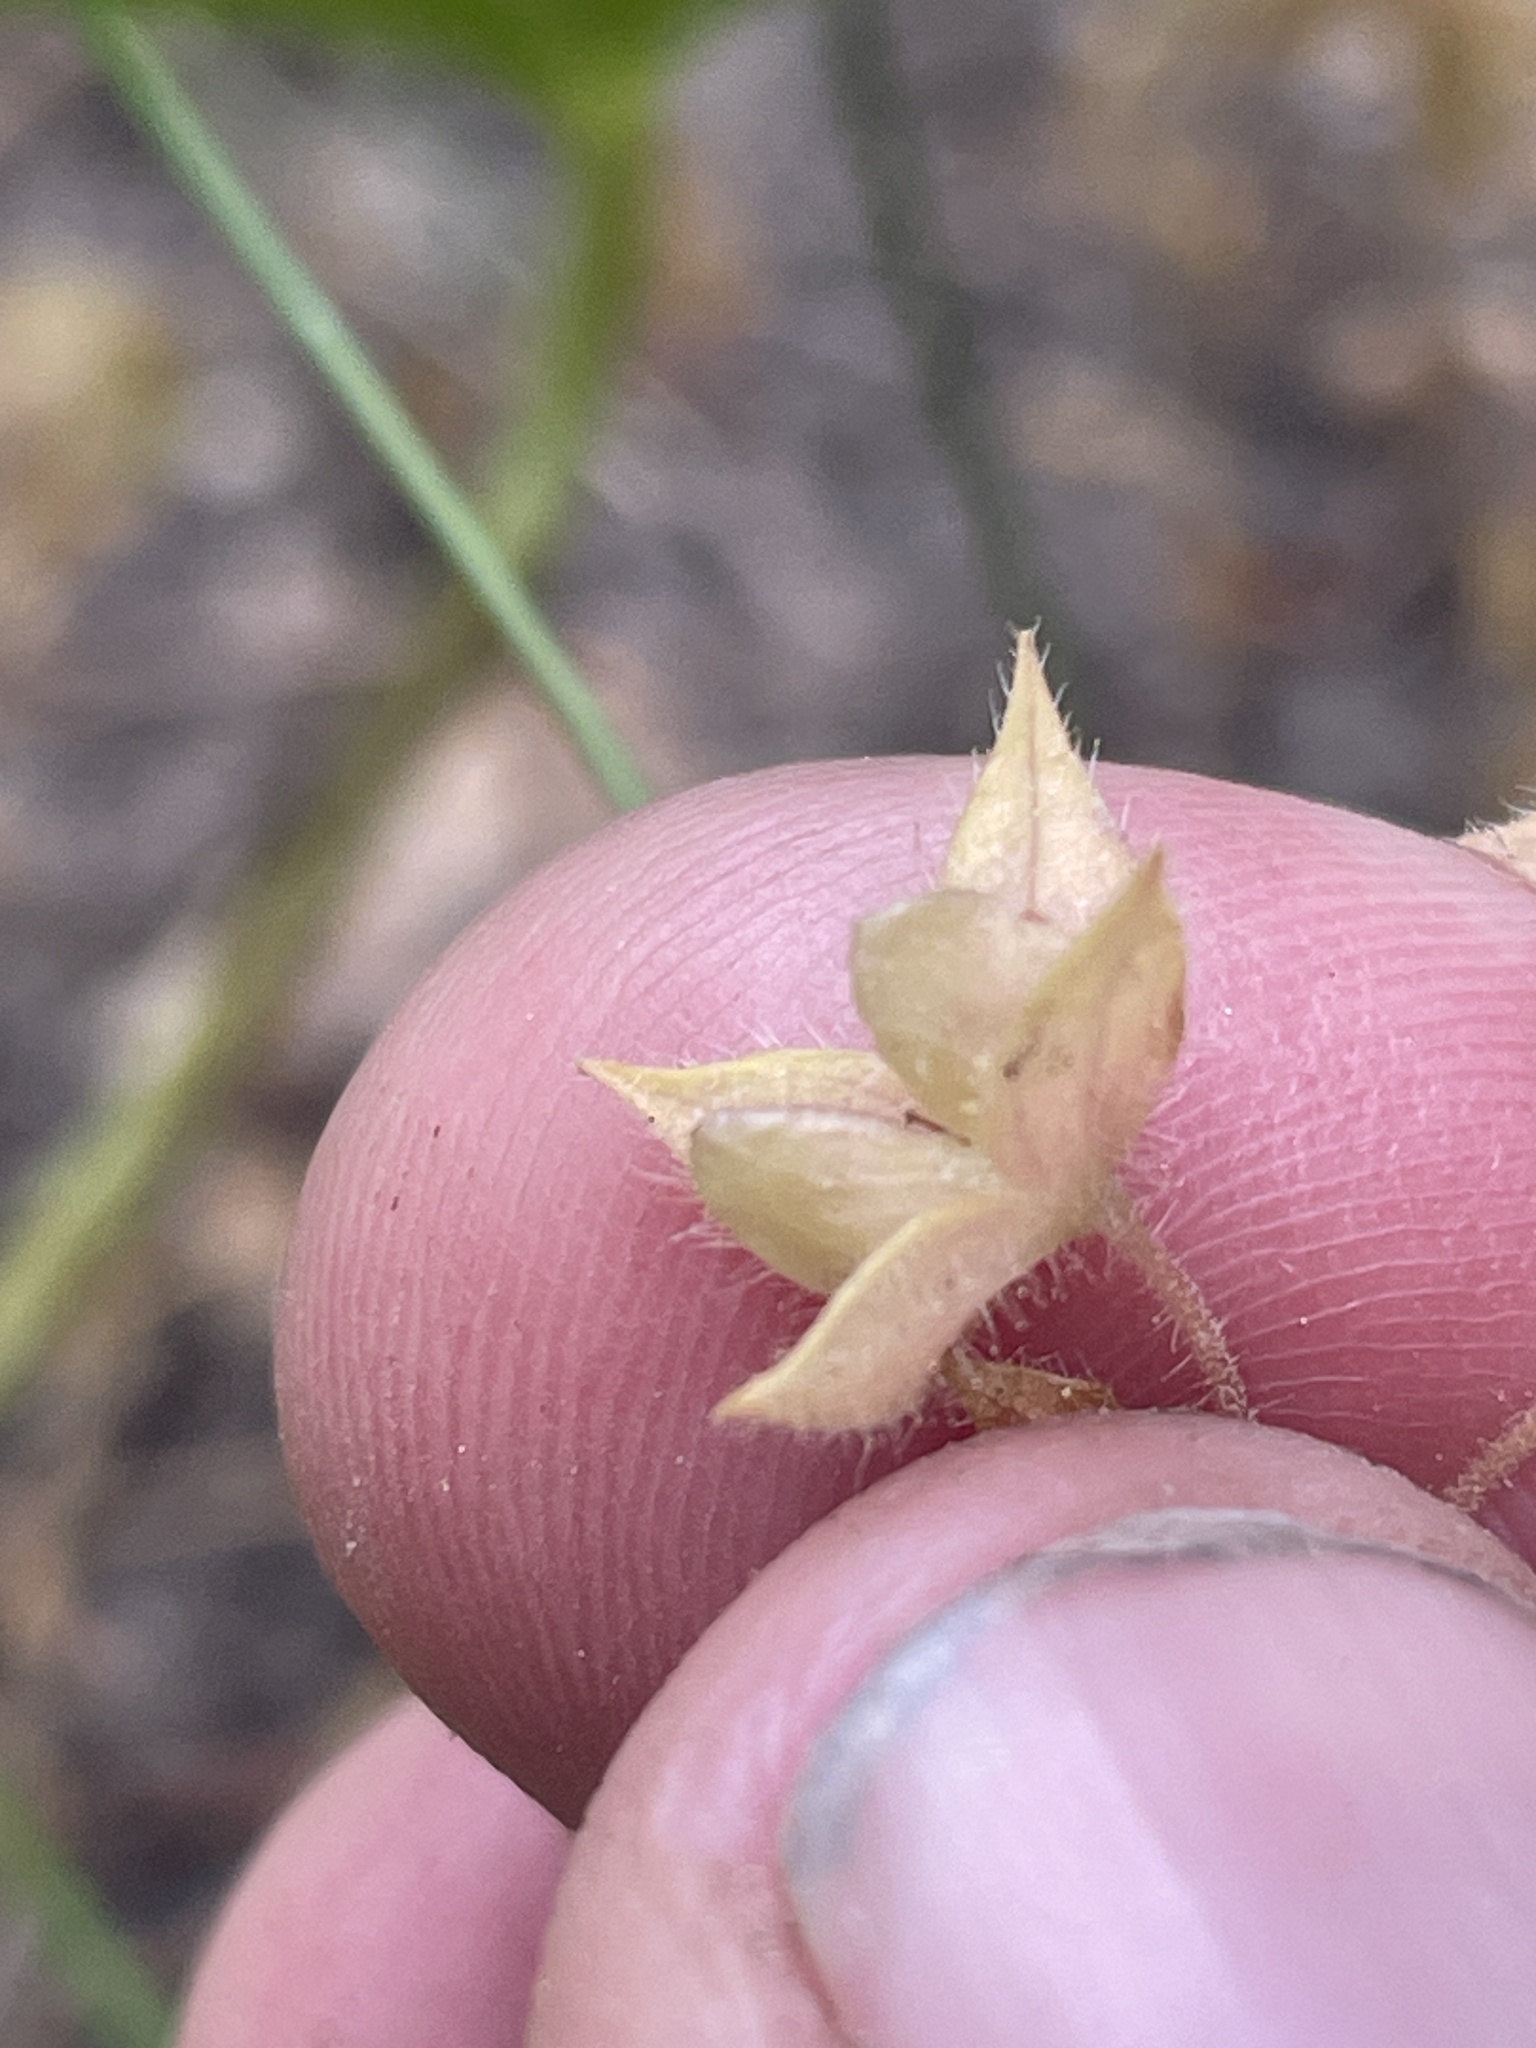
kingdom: Plantae
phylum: Tracheophyta
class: Magnoliopsida
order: Lamiales
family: Plantaginaceae
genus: Veronica
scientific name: Veronica biloba
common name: Twolobe speedwell
